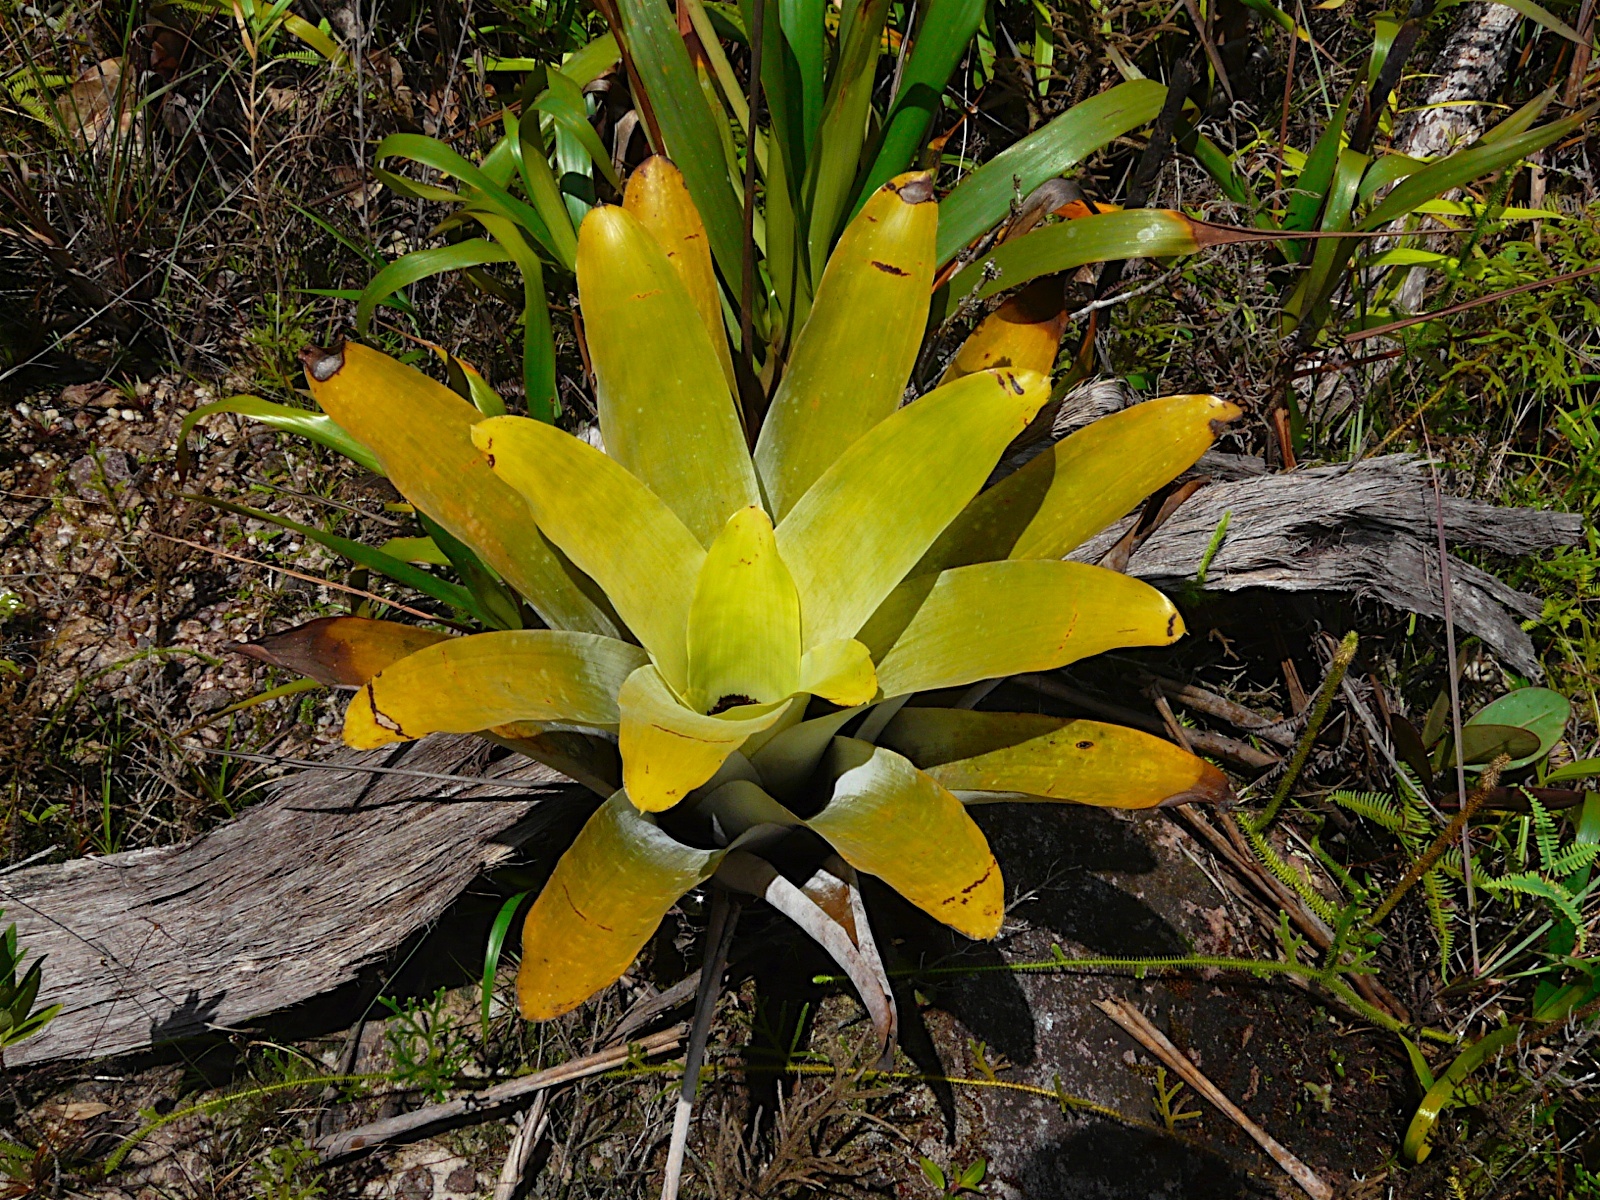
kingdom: Plantae
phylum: Tracheophyta
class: Liliopsida
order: Poales
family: Bromeliaceae
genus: Brocchinia
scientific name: Brocchinia tatei
